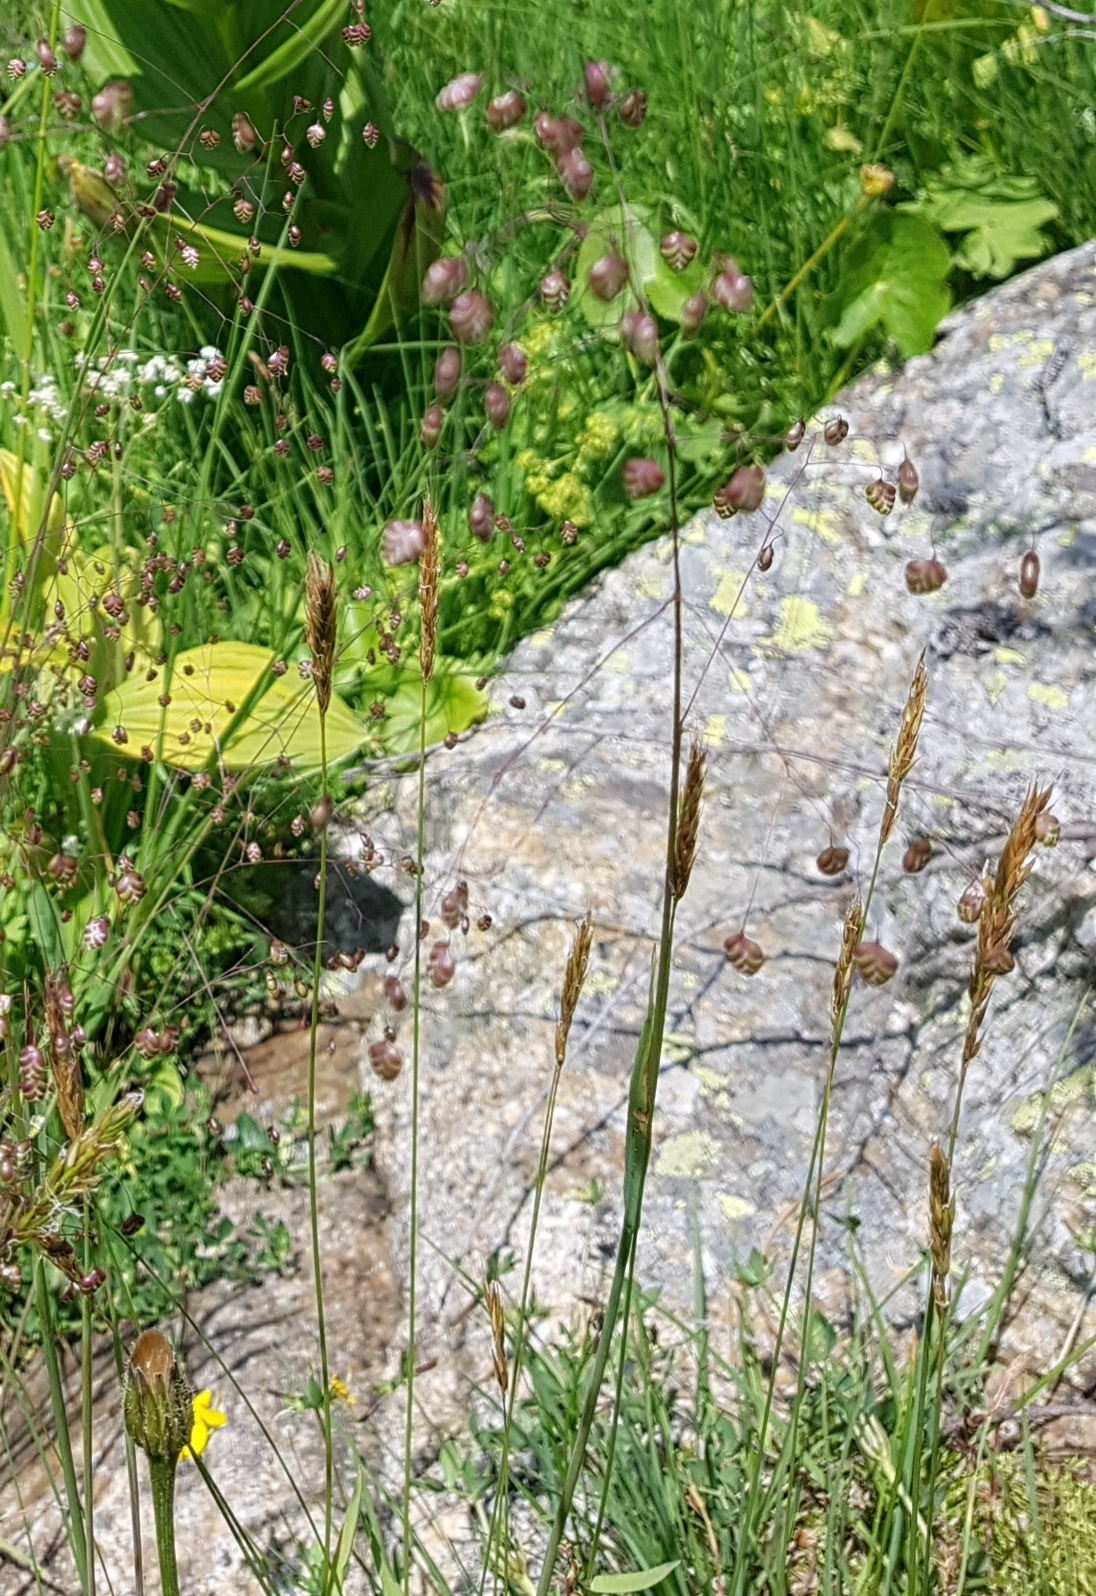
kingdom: Plantae
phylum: Tracheophyta
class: Liliopsida
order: Poales
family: Poaceae
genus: Briza
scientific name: Briza media
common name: Quaking grass
